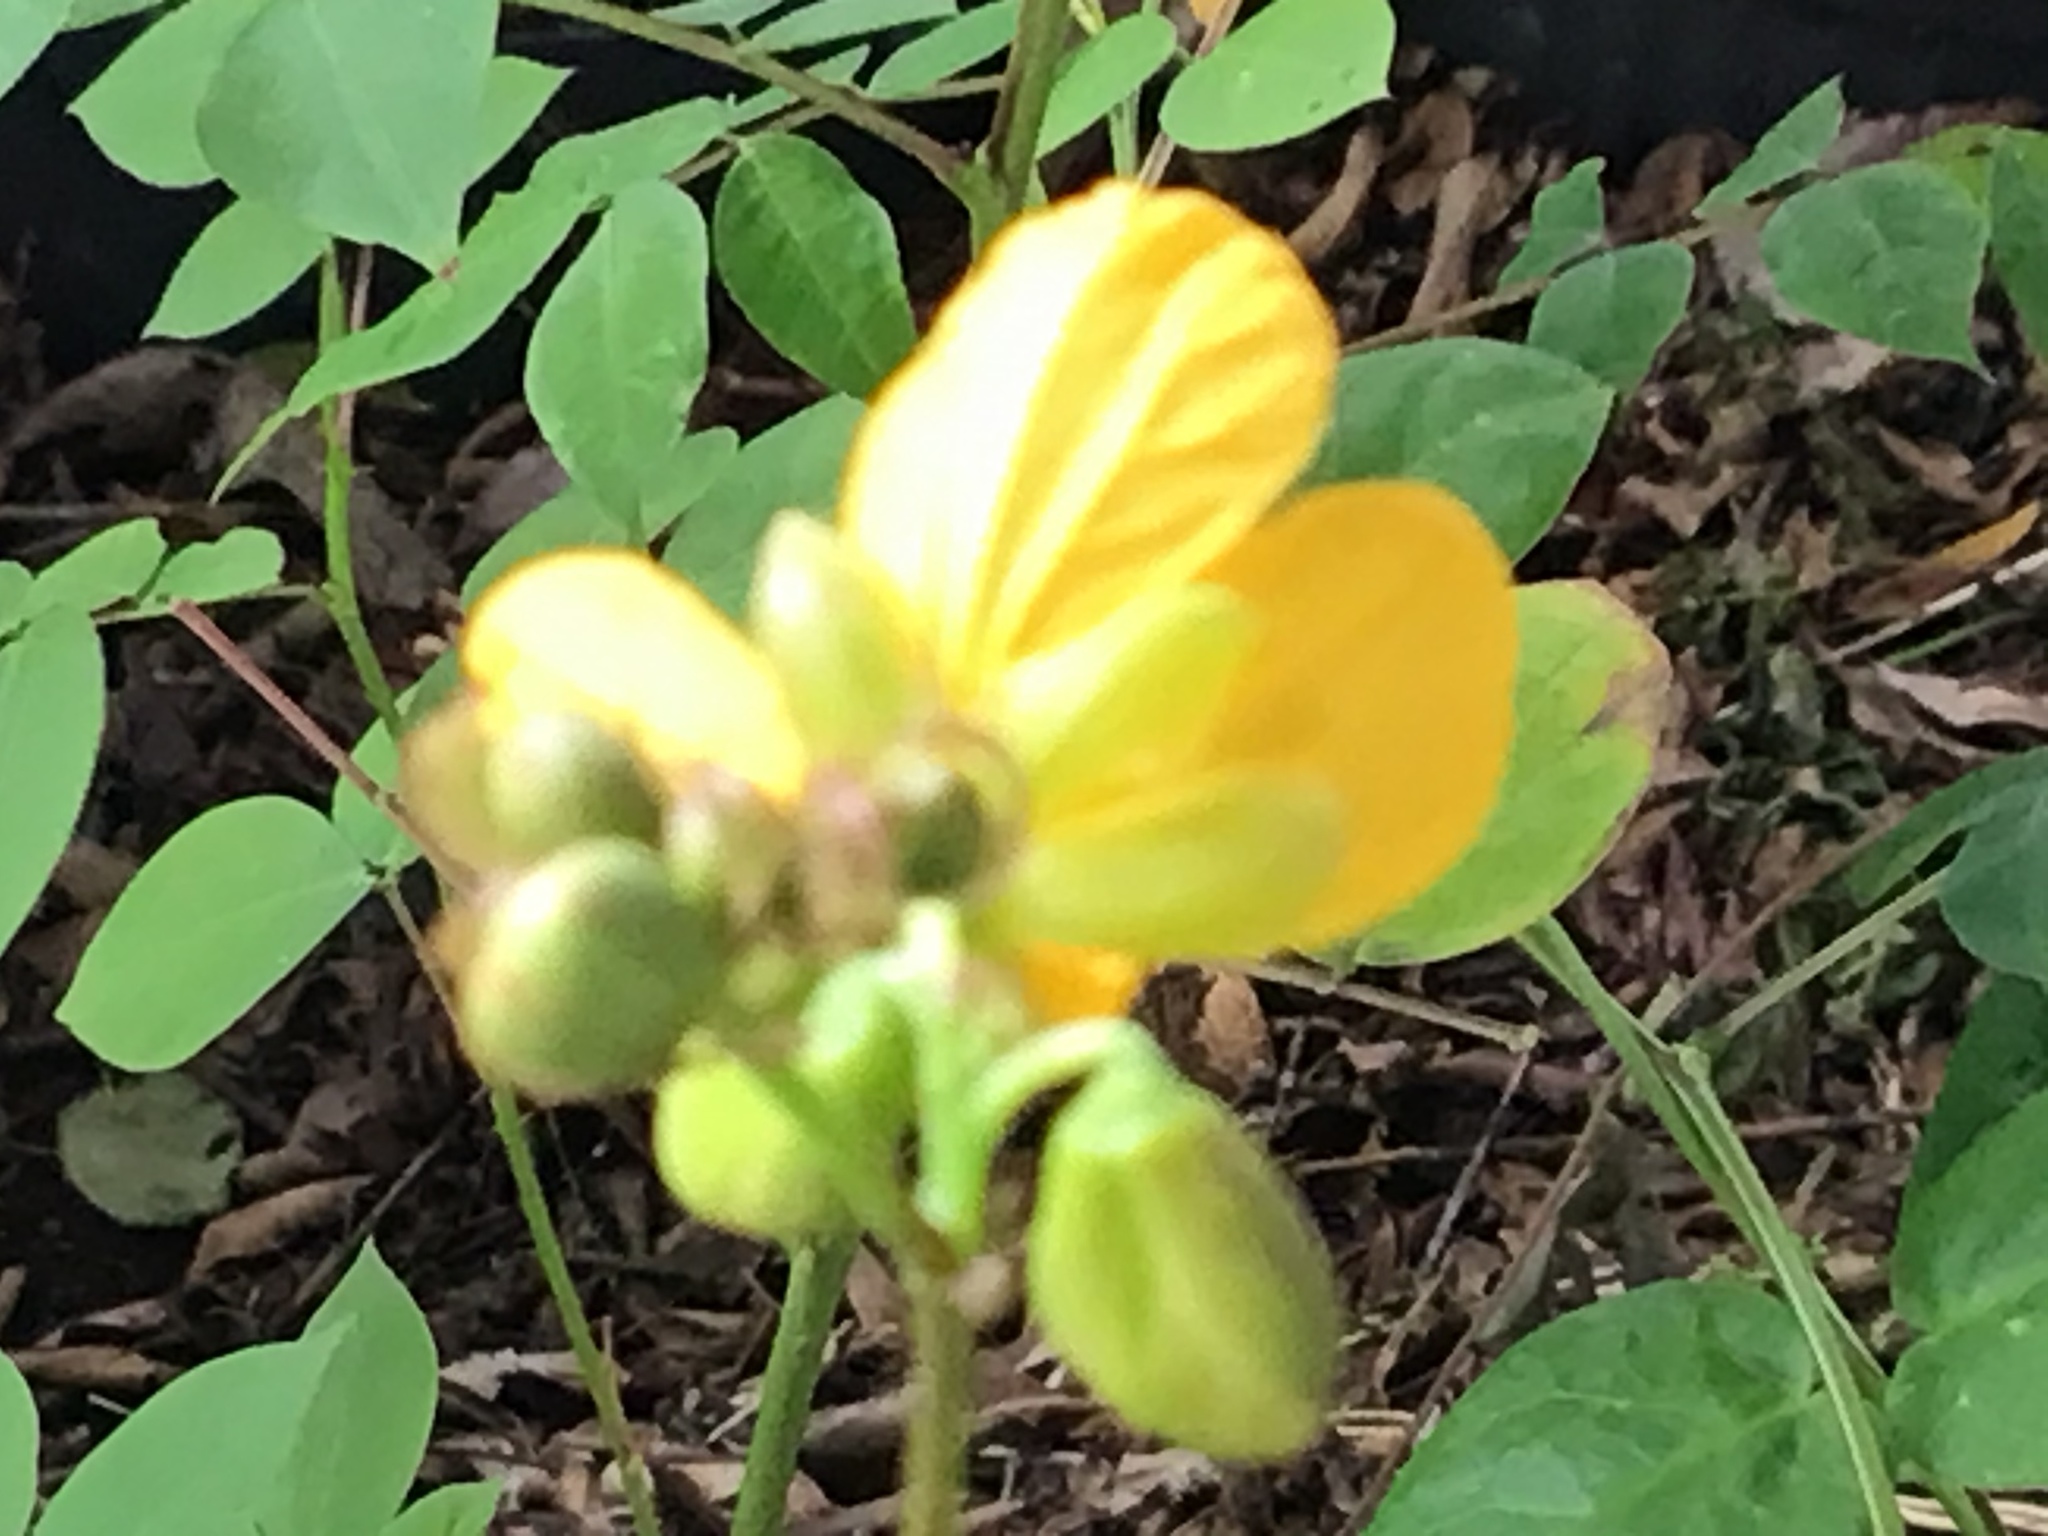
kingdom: Plantae
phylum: Tracheophyta
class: Magnoliopsida
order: Fabales
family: Fabaceae
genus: Senna
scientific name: Senna occidentalis
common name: Septicweed
